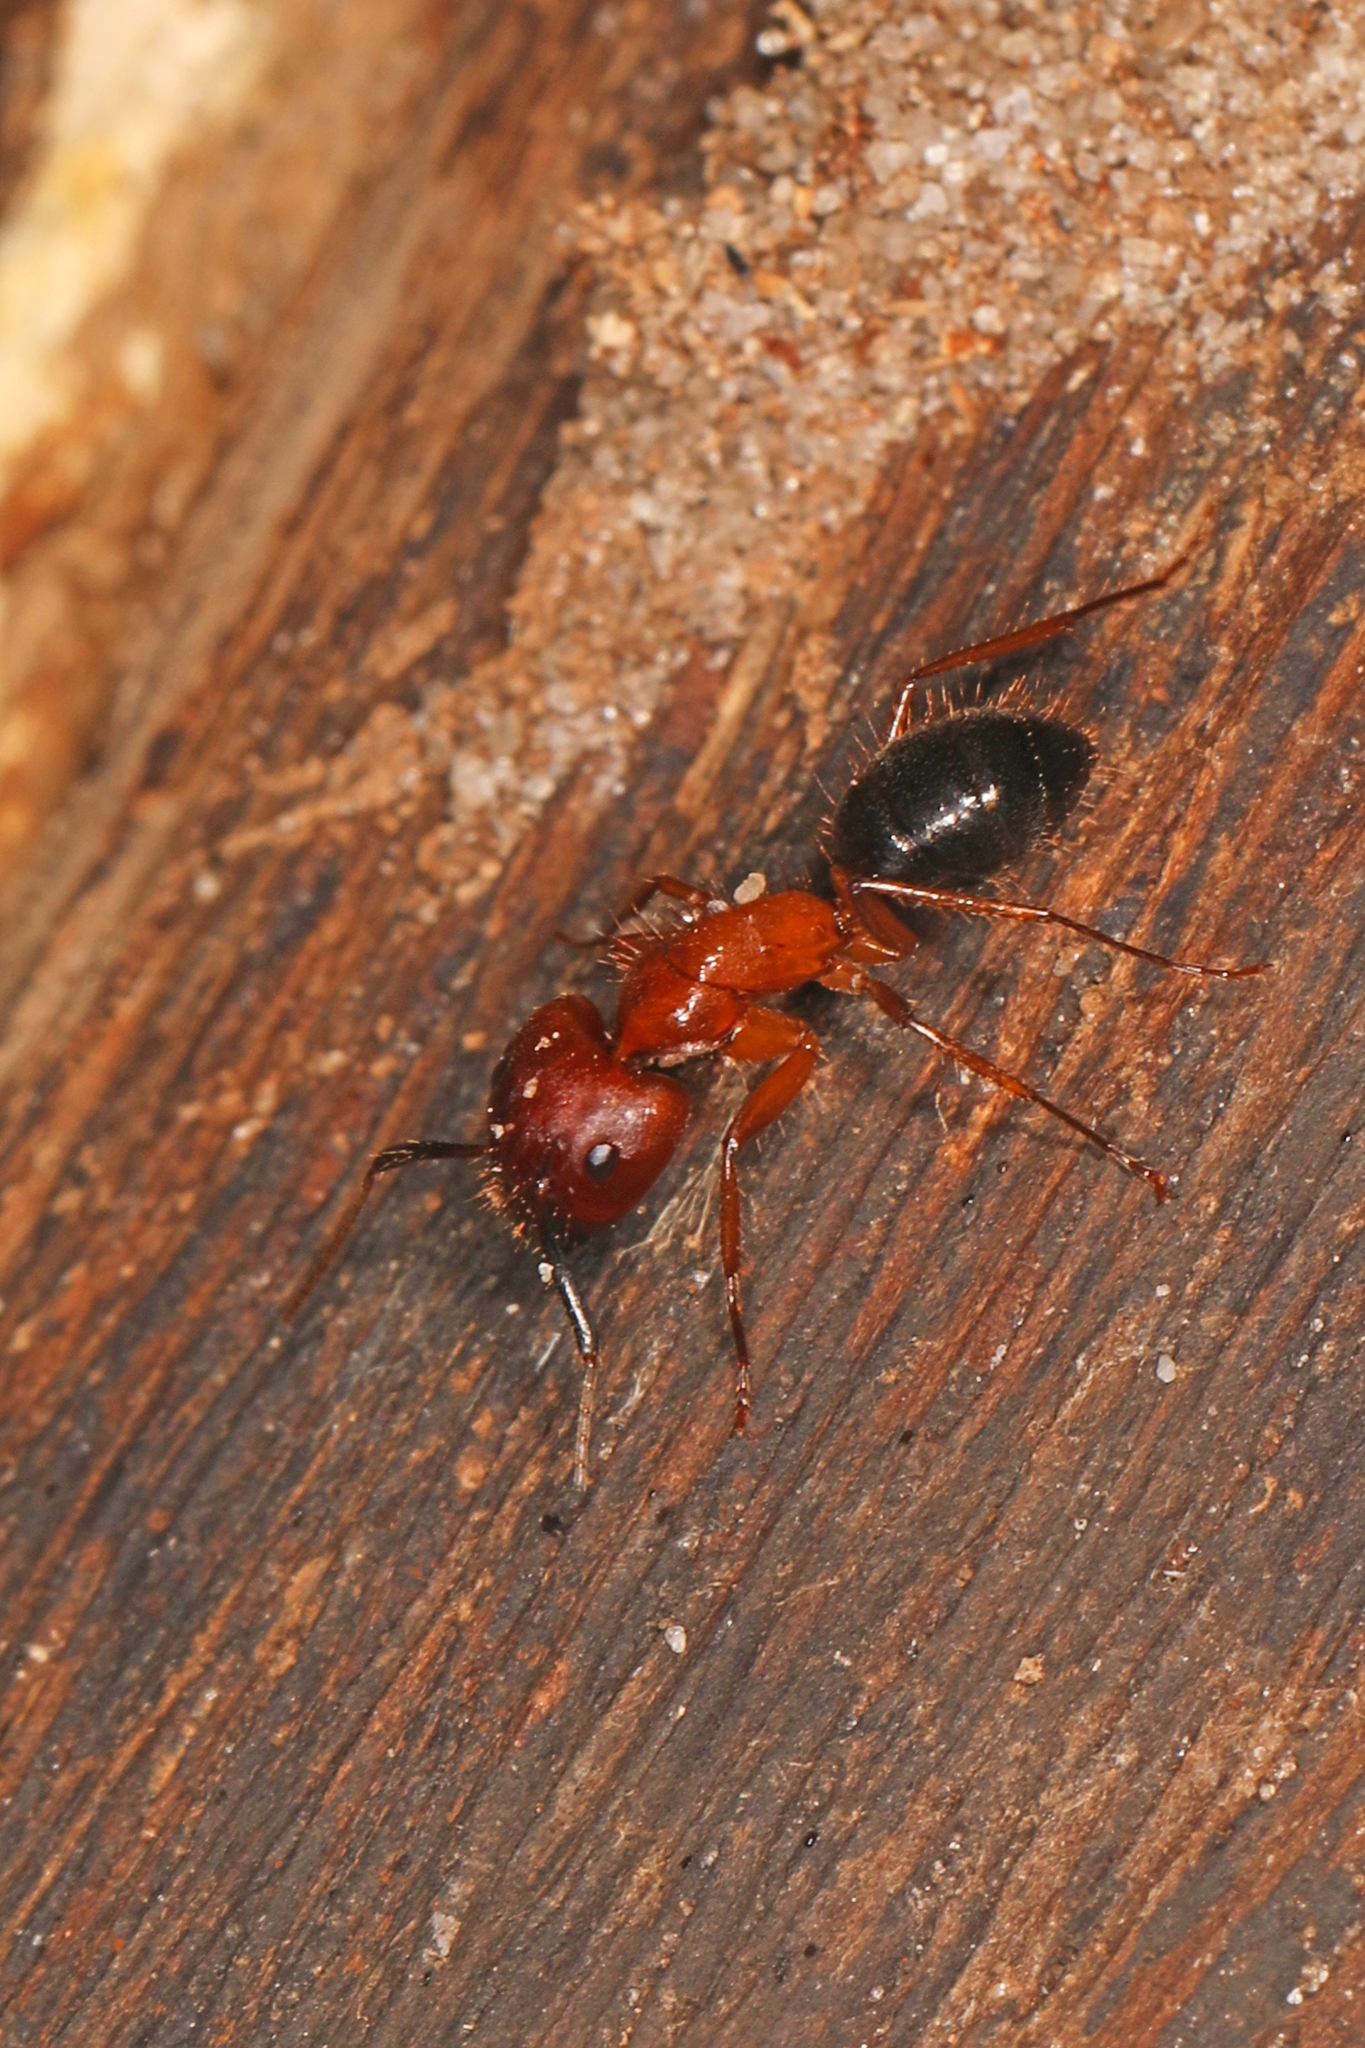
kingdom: Animalia
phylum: Arthropoda
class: Insecta
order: Hymenoptera
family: Formicidae
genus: Camponotus
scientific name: Camponotus floridanus
